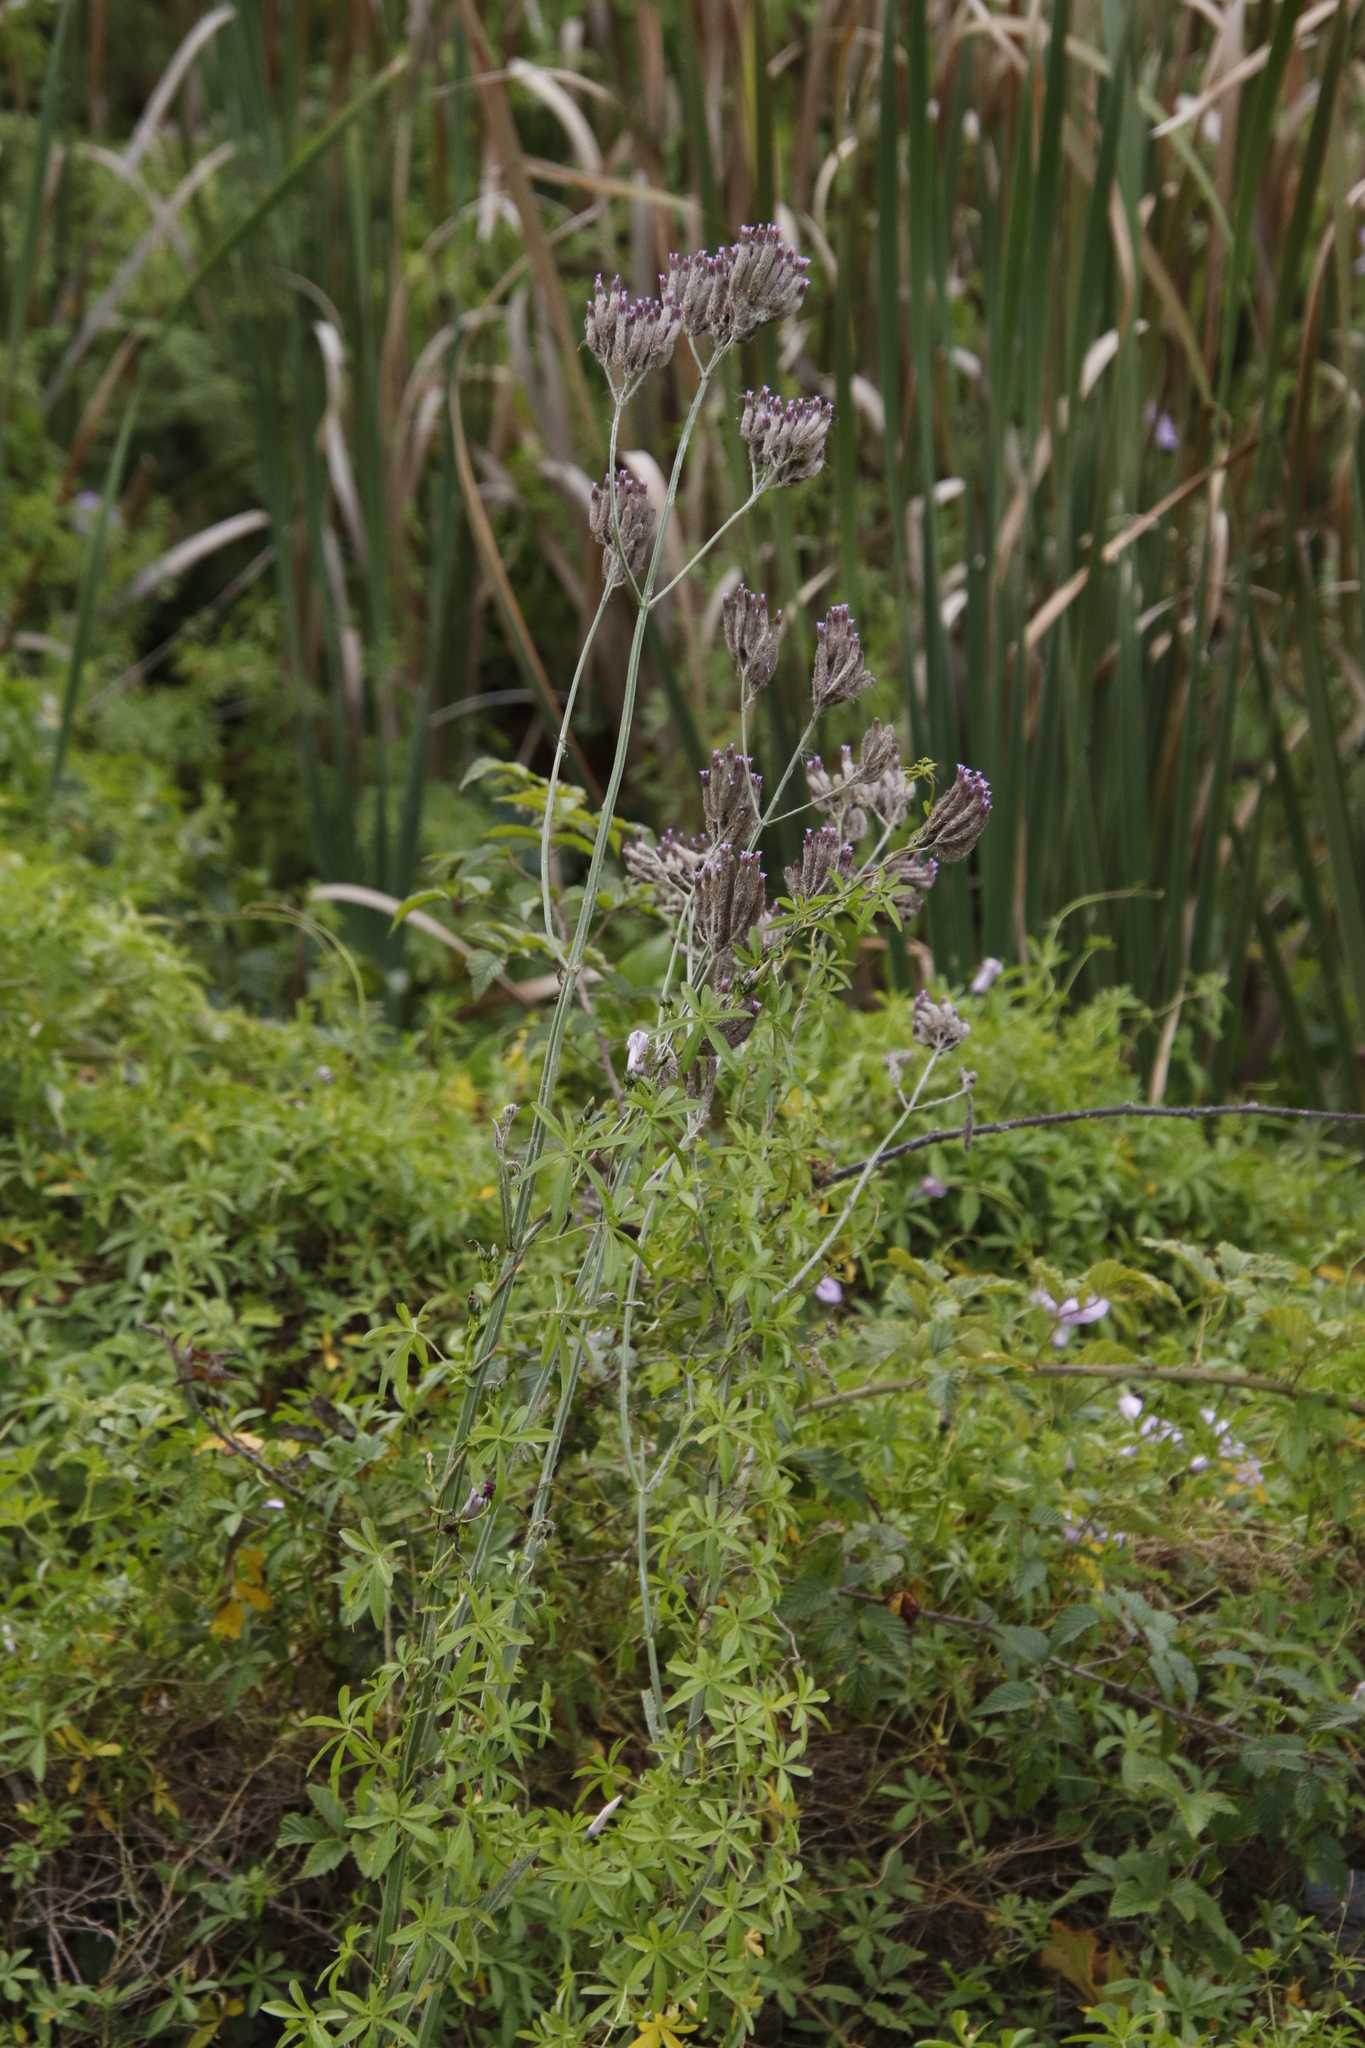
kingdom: Plantae
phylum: Tracheophyta
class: Magnoliopsida
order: Lamiales
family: Verbenaceae
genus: Verbena
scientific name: Verbena bonariensis
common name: Purpletop vervain
